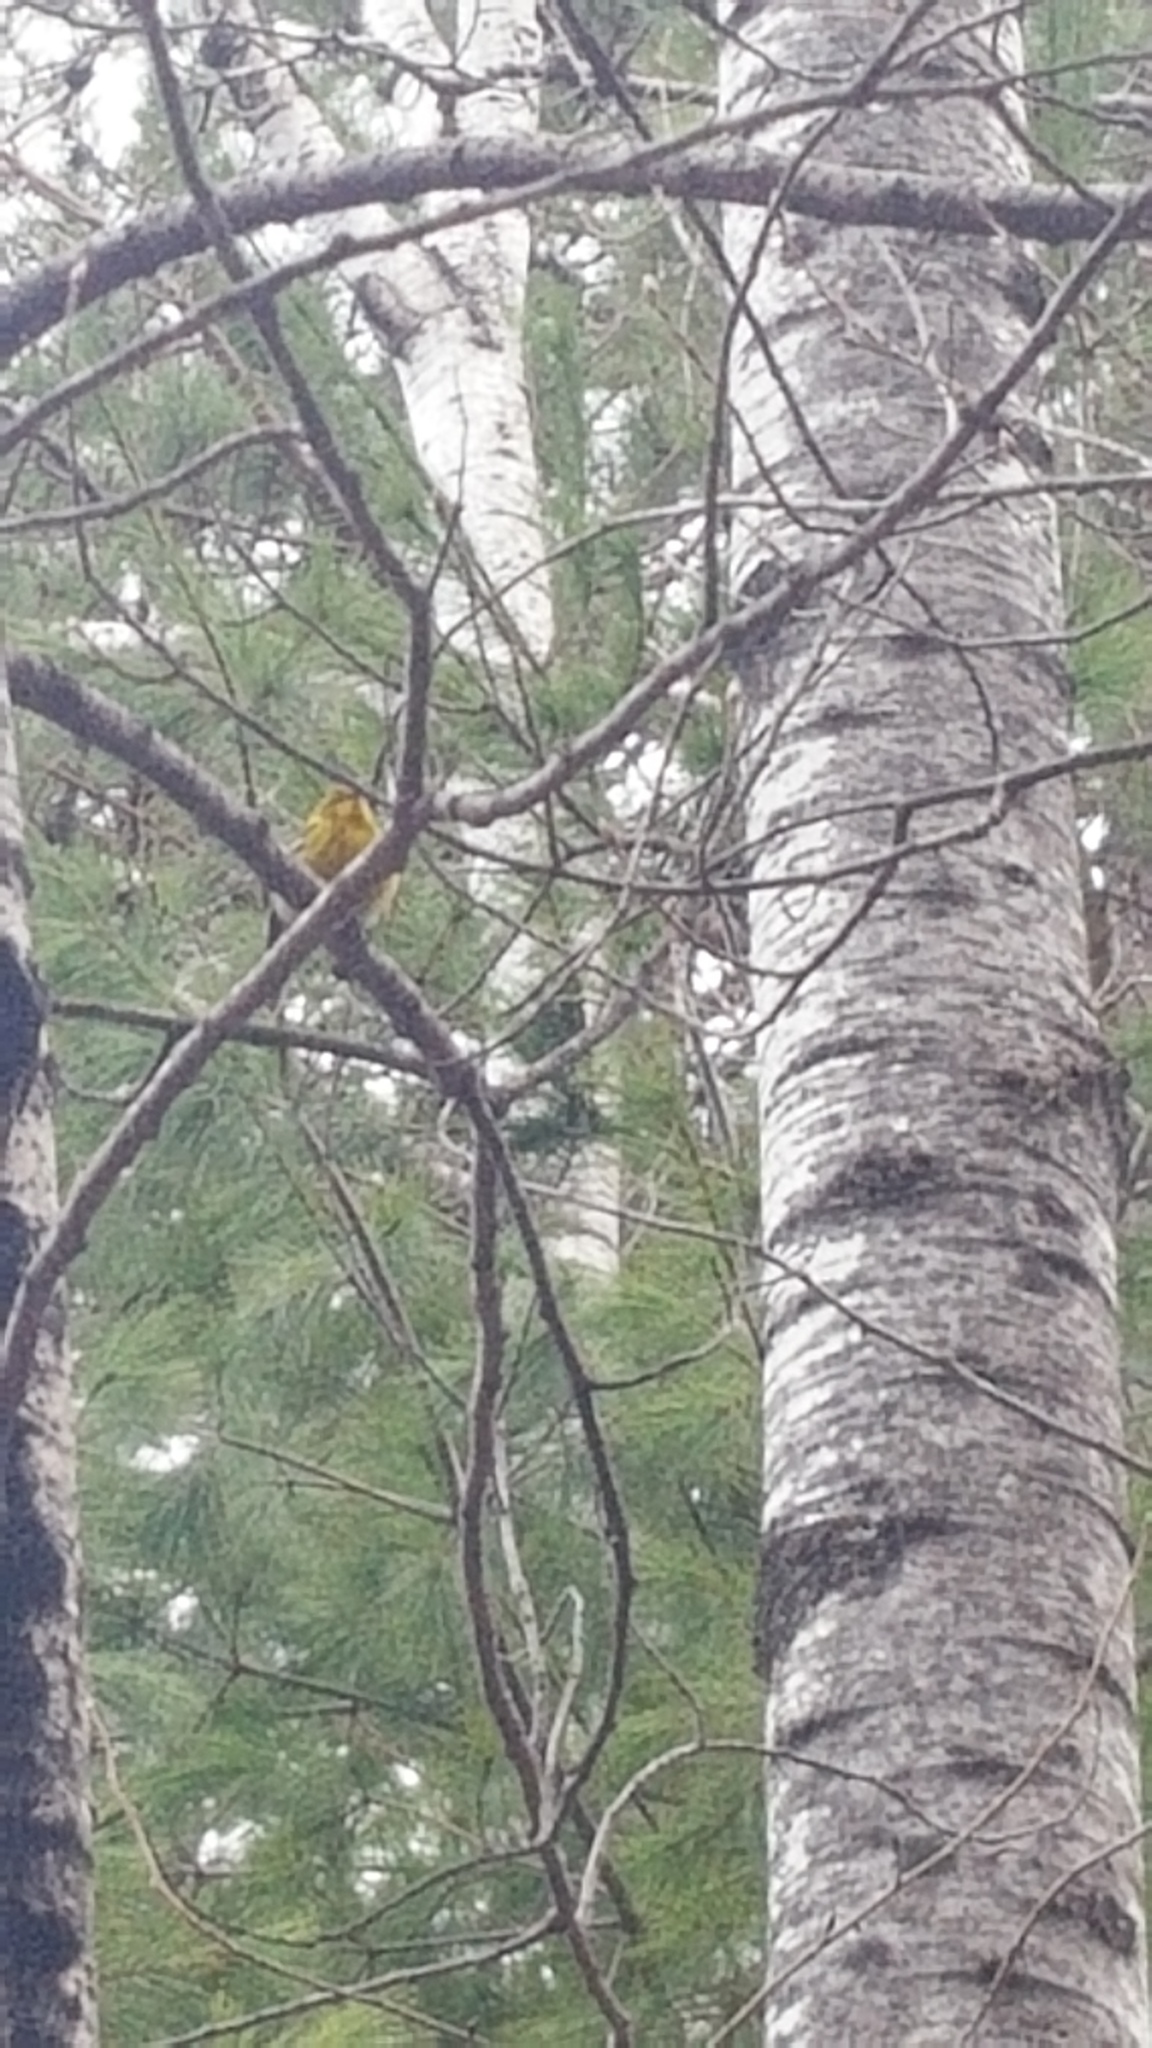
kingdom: Animalia
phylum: Chordata
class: Aves
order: Passeriformes
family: Parulidae
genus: Setophaga
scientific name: Setophaga pinus
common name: Pine warbler
